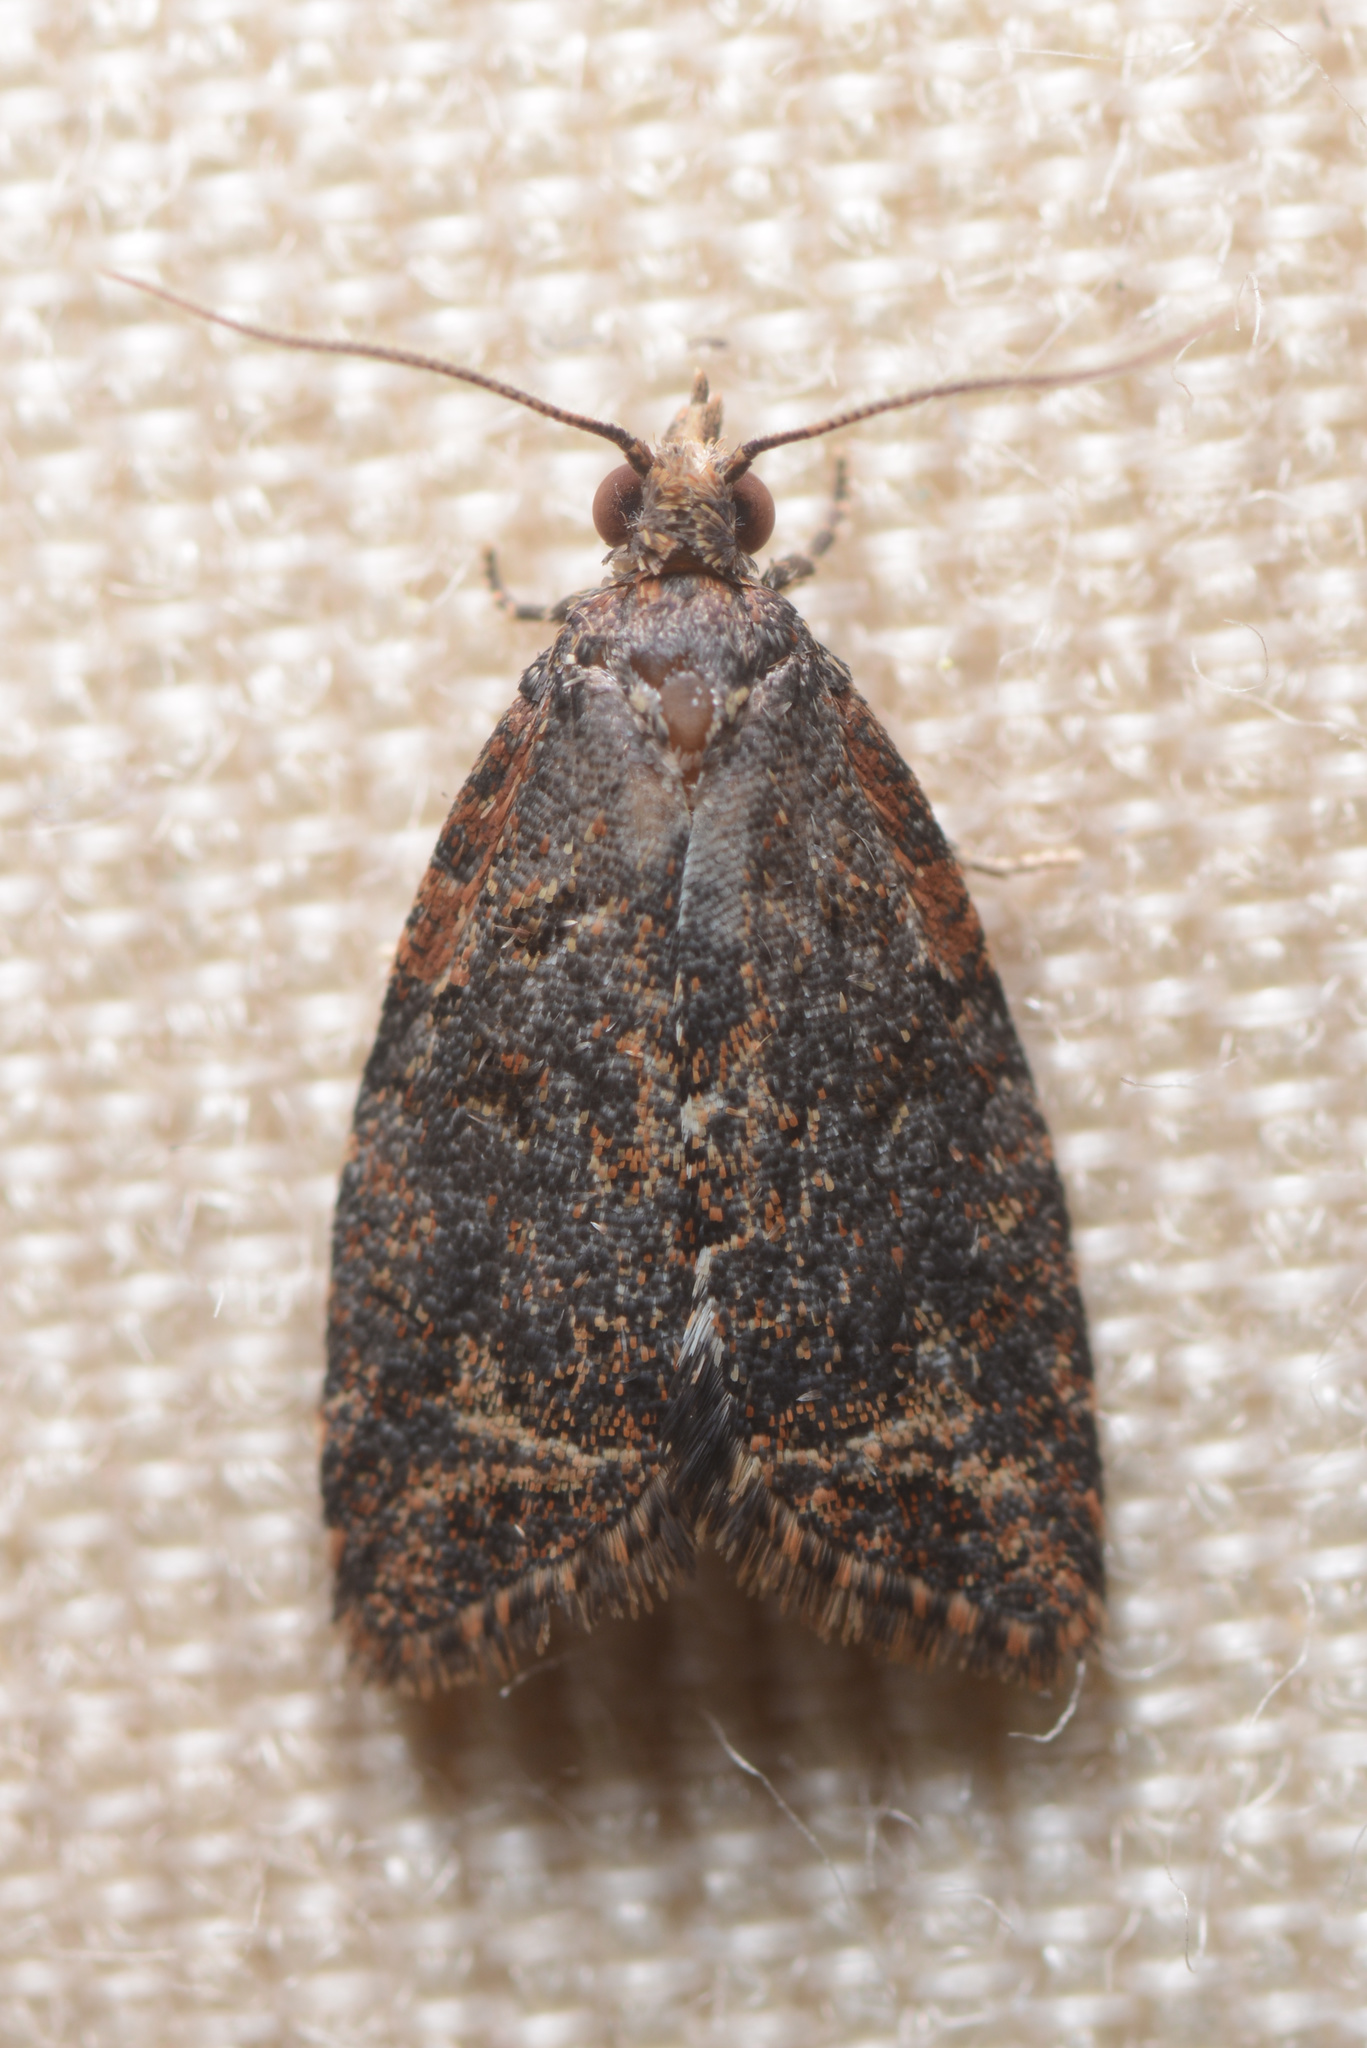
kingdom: Animalia
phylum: Arthropoda
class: Insecta
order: Lepidoptera
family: Tortricidae
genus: Capua
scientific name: Capua intractana
